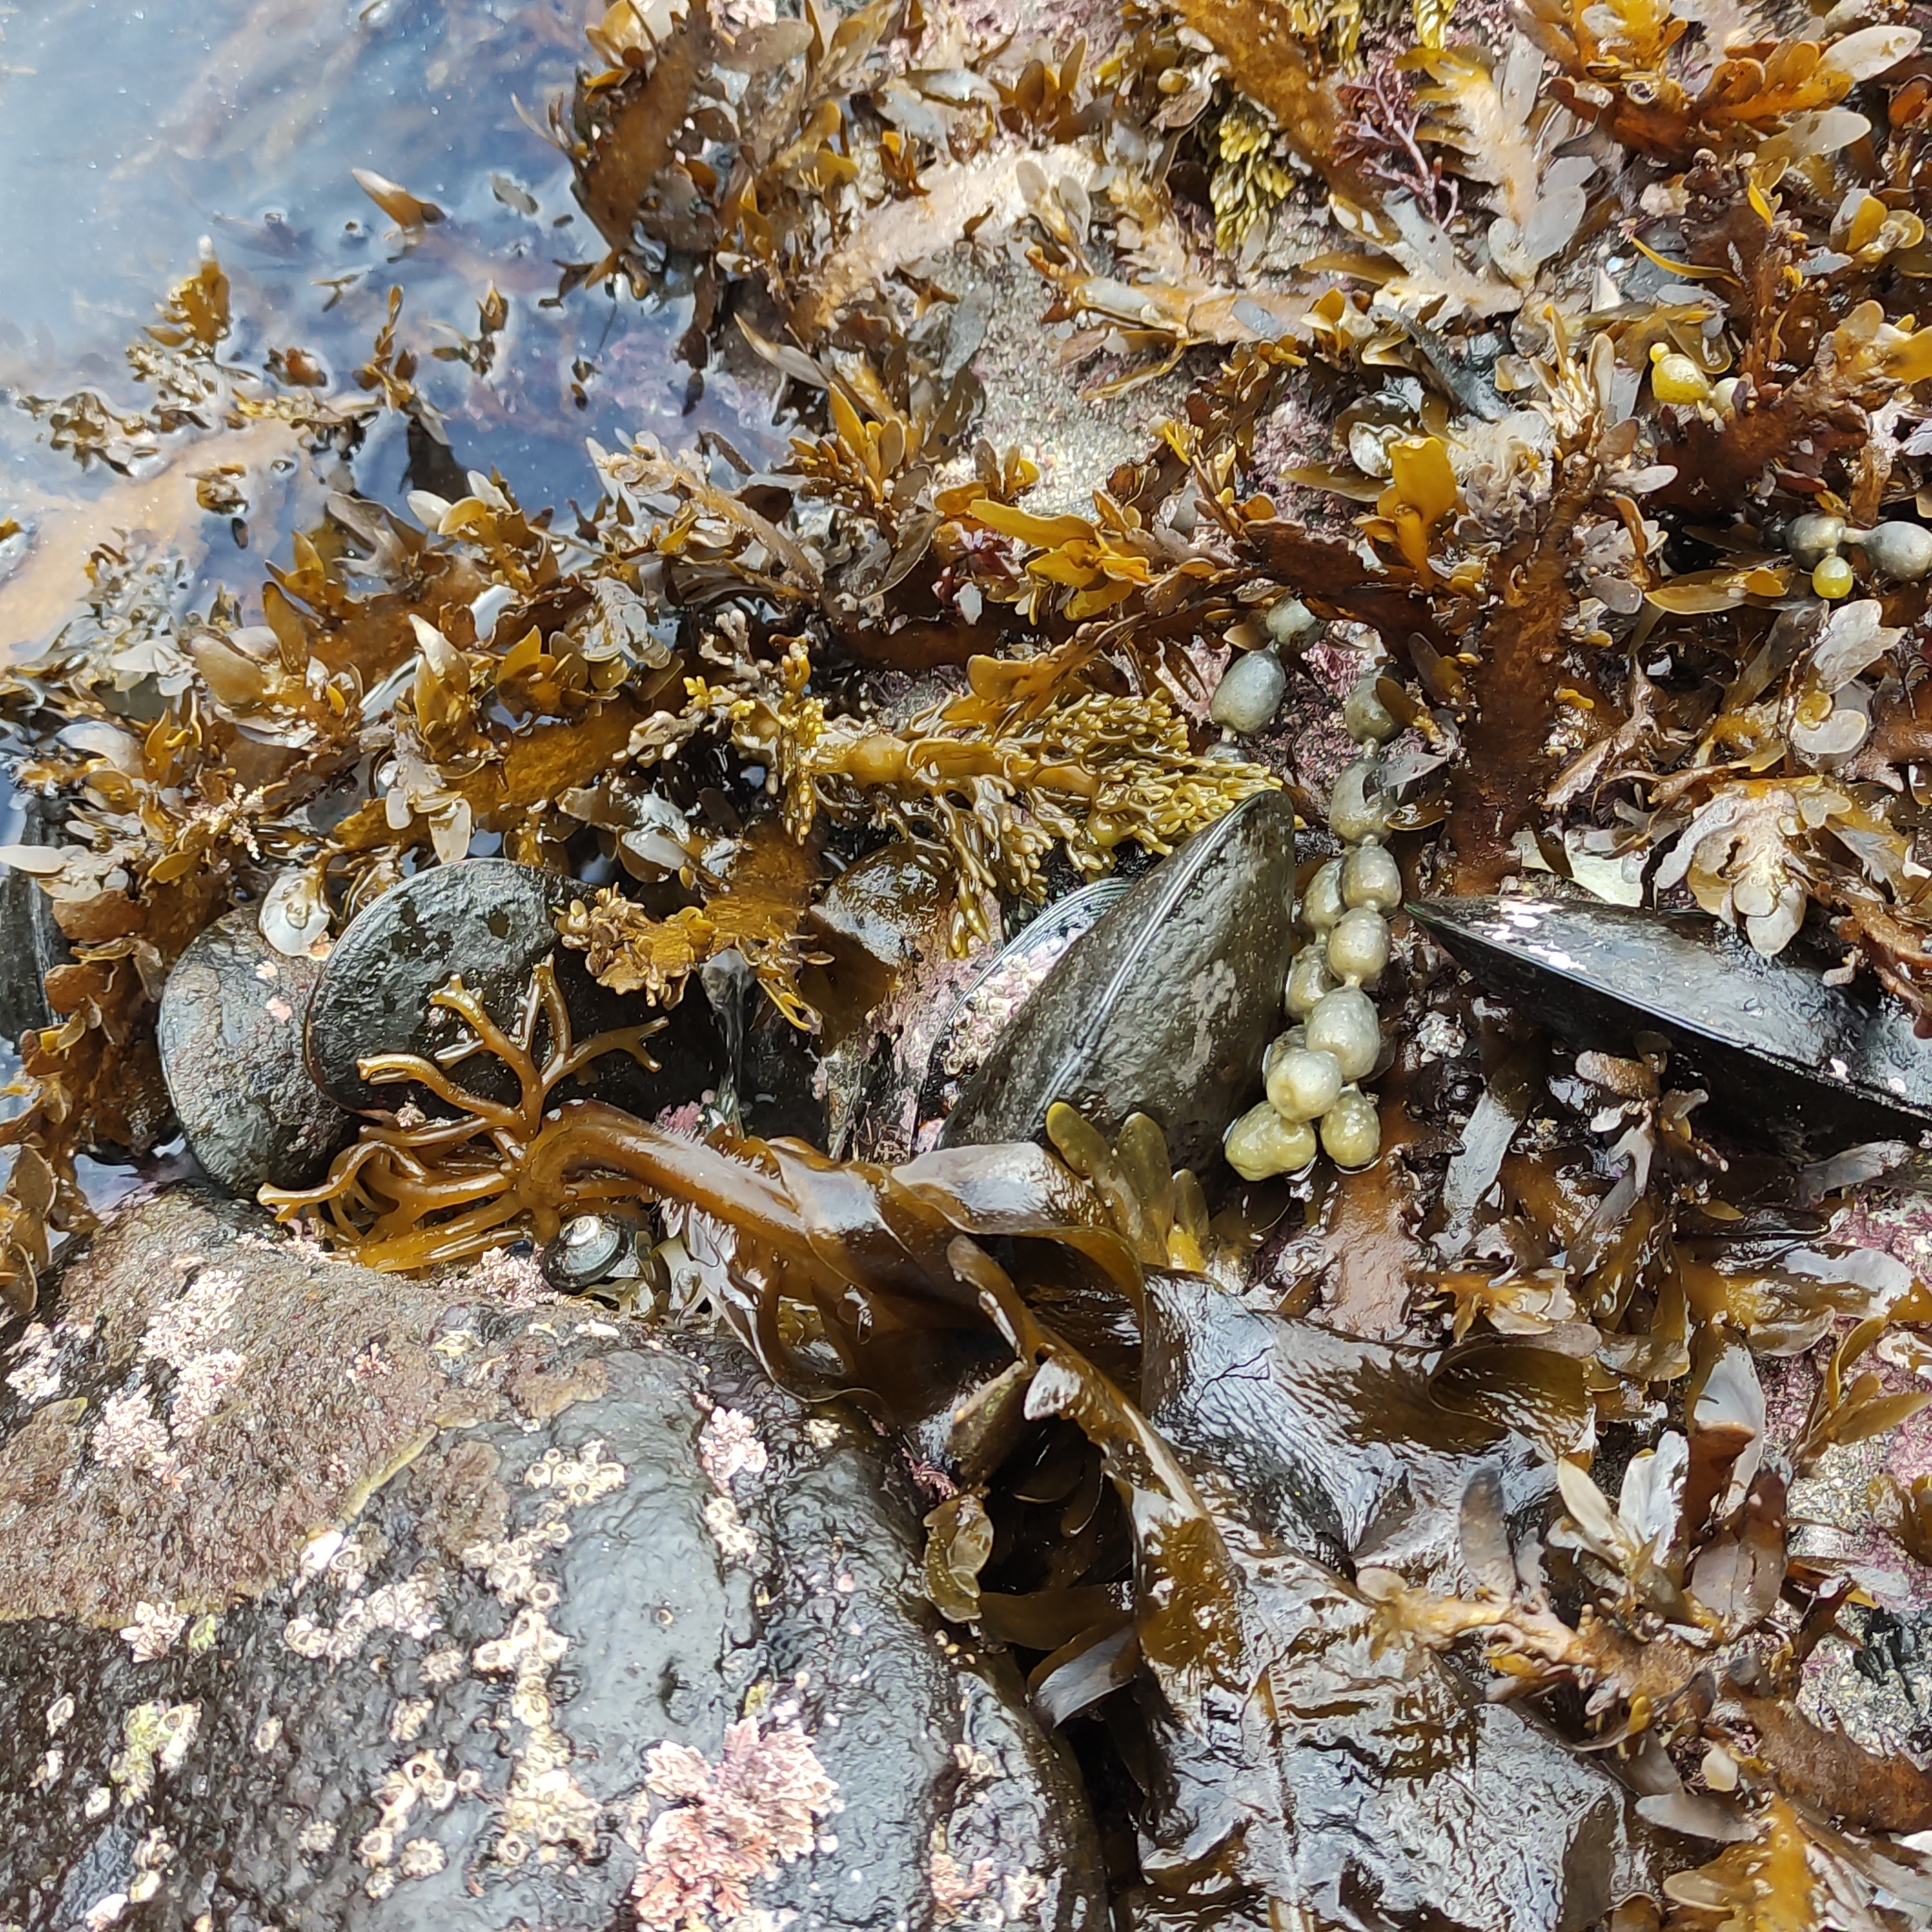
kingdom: Animalia
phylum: Mollusca
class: Bivalvia
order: Mytilida
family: Mytilidae
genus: Perna
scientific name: Perna canaliculus
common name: New zealand greenshelltm
